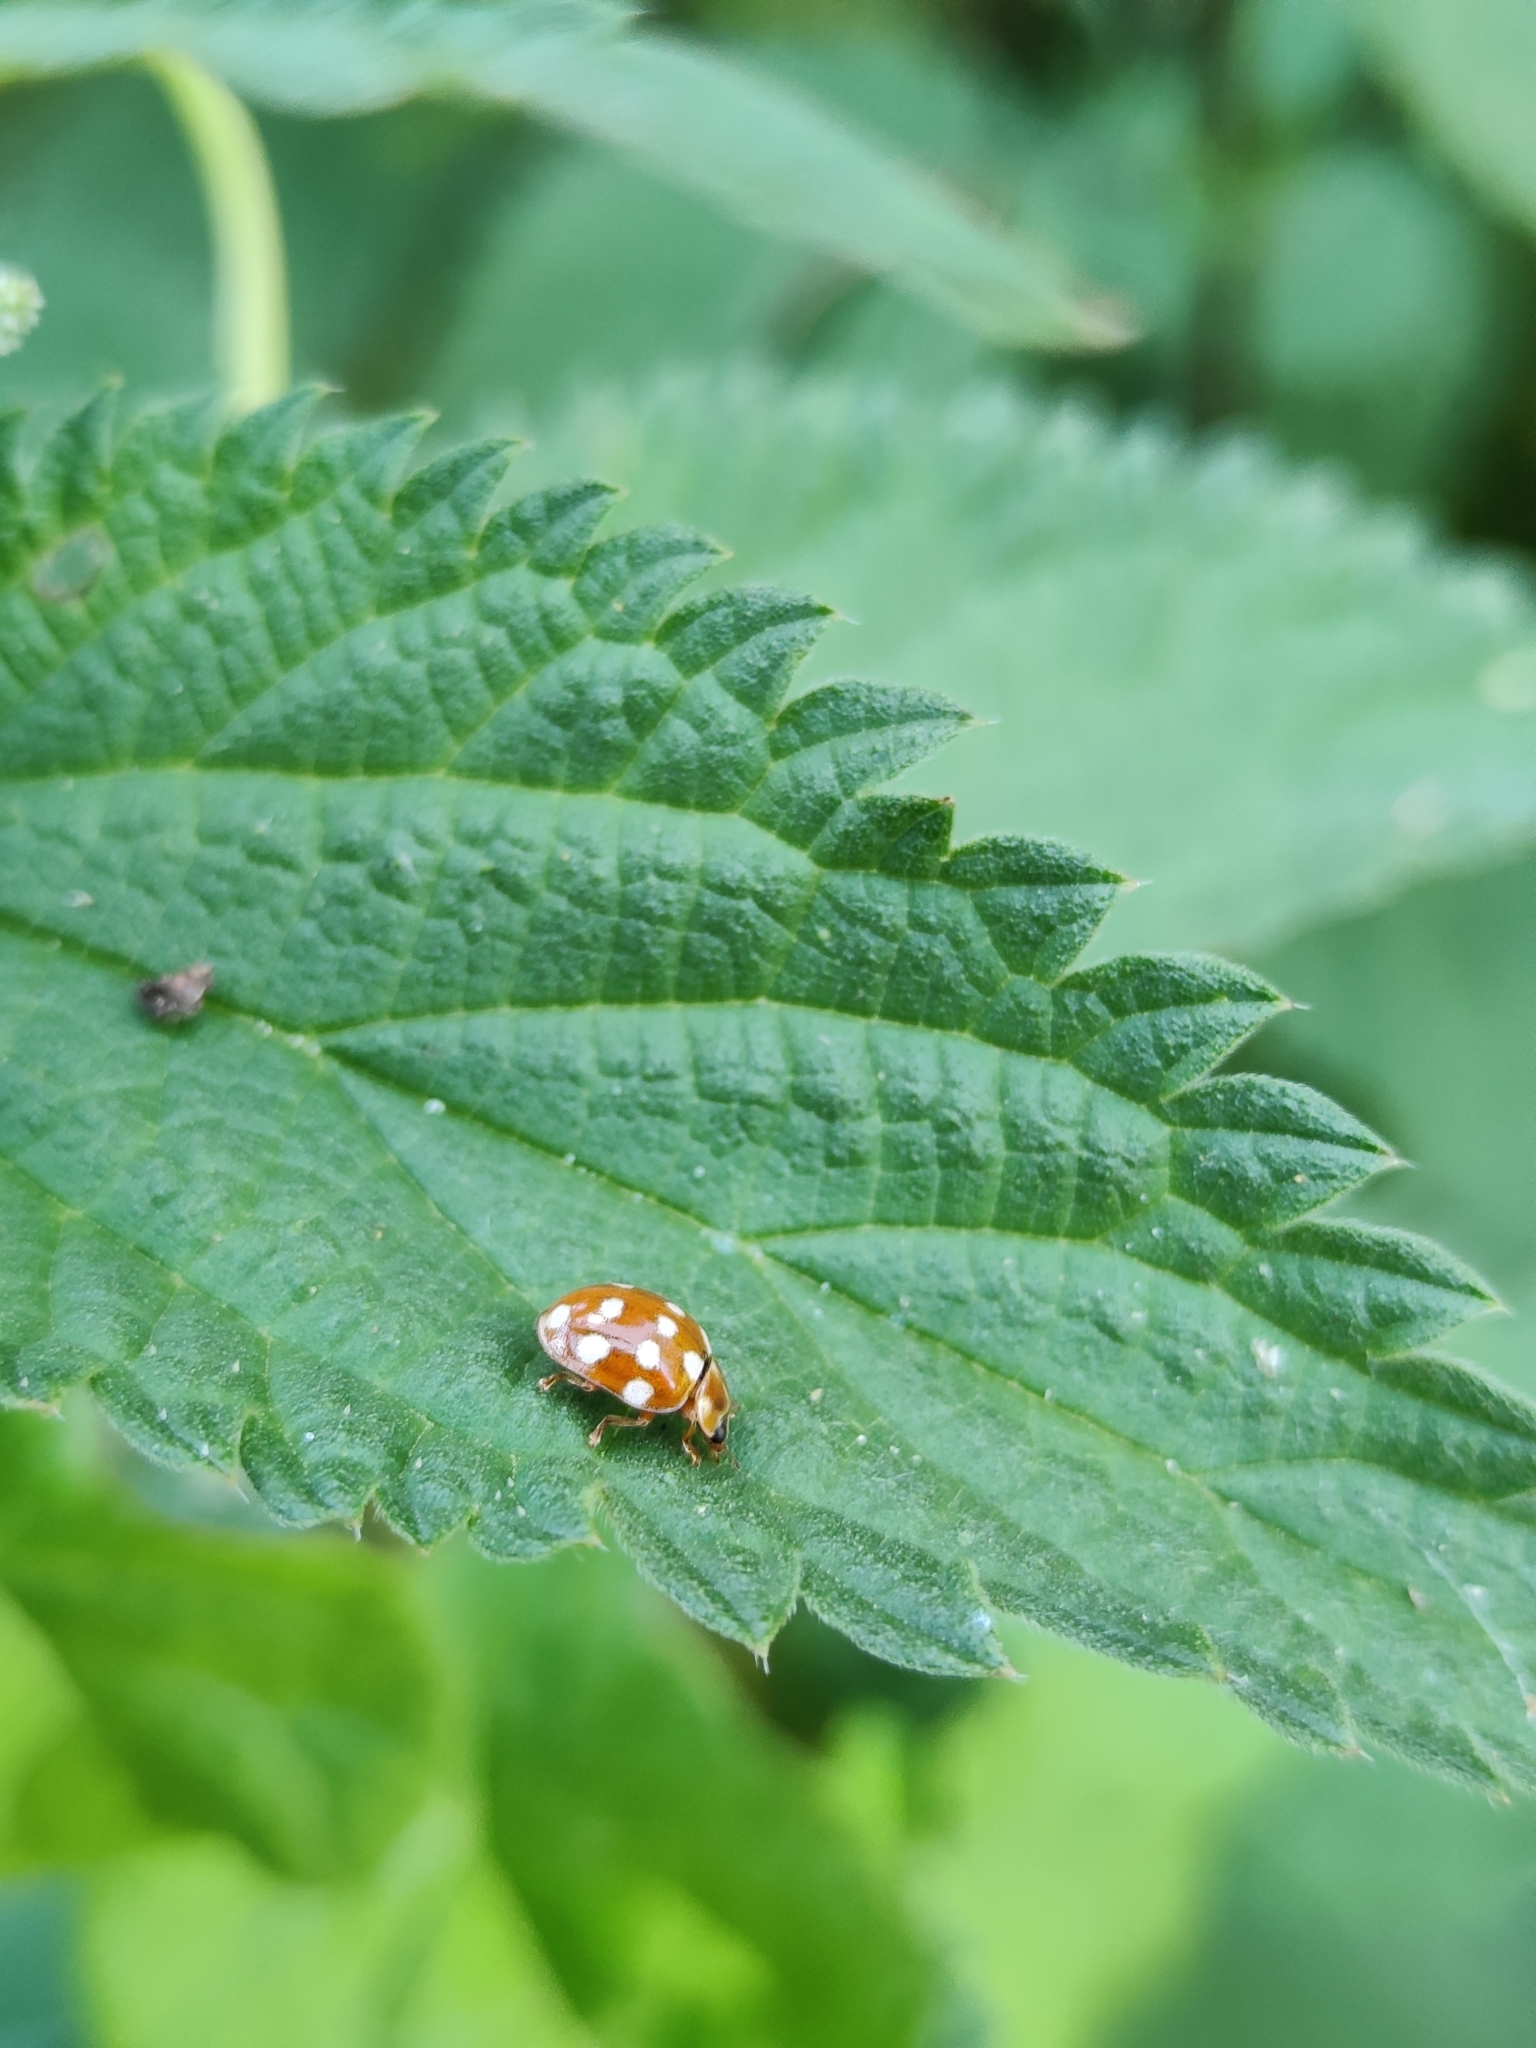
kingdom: Animalia
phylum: Arthropoda
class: Insecta
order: Coleoptera
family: Coccinellidae
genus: Calvia
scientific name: Calvia quatuordecimguttata
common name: Cream-spot ladybird
